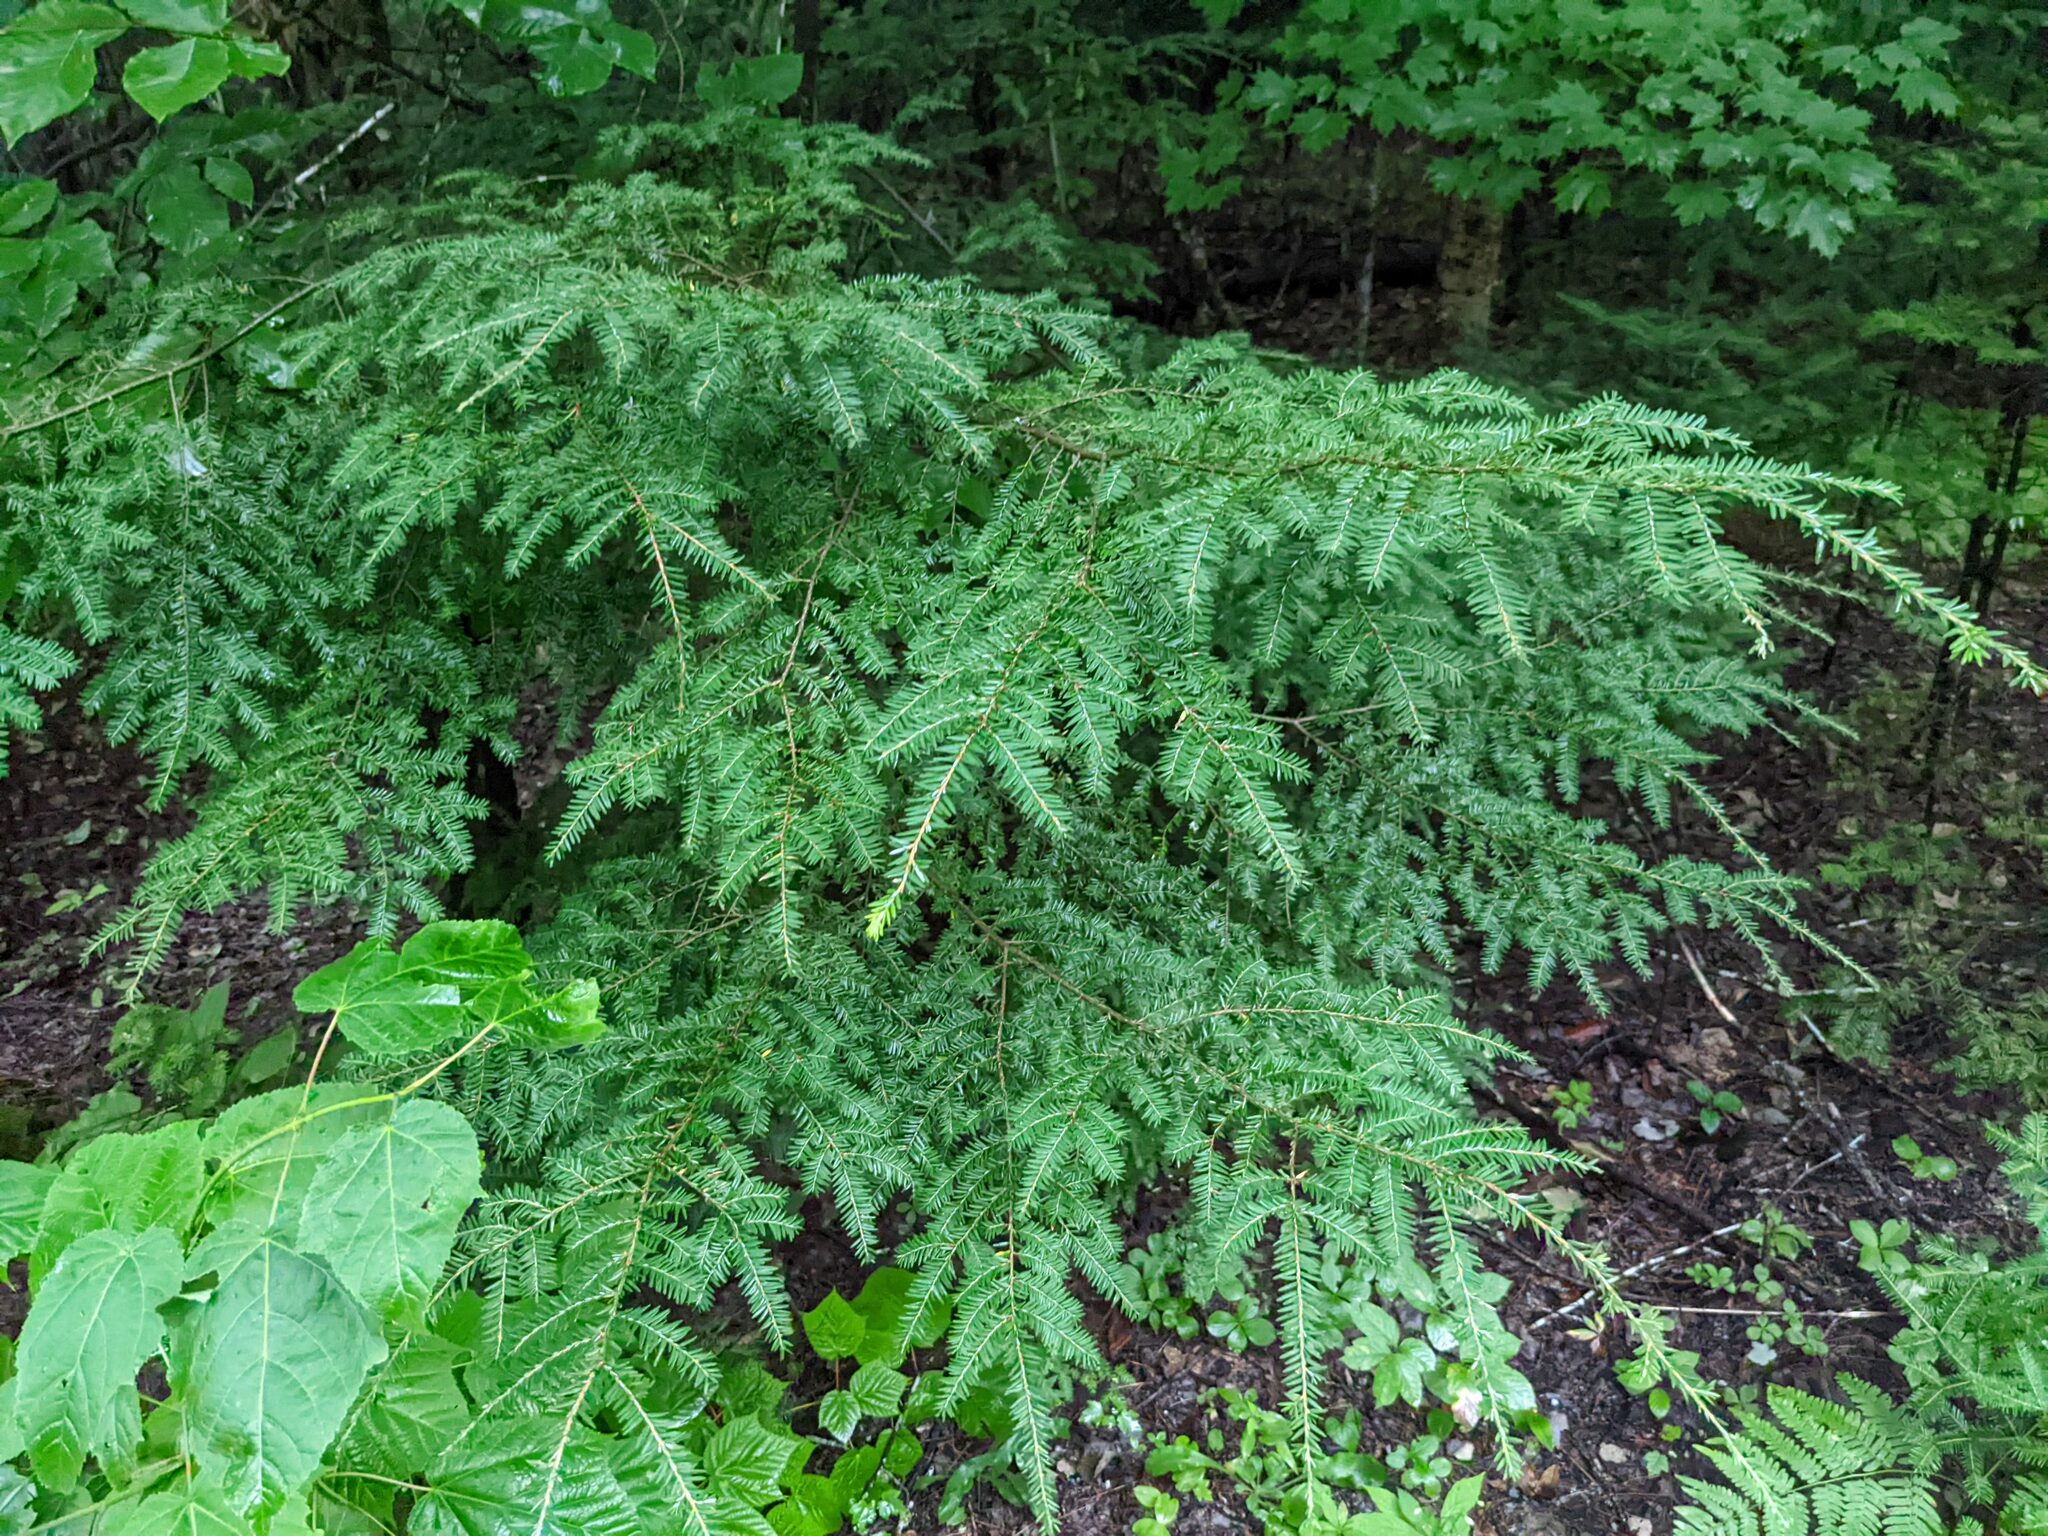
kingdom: Plantae
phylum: Tracheophyta
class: Pinopsida
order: Pinales
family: Pinaceae
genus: Tsuga
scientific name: Tsuga canadensis
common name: Eastern hemlock
